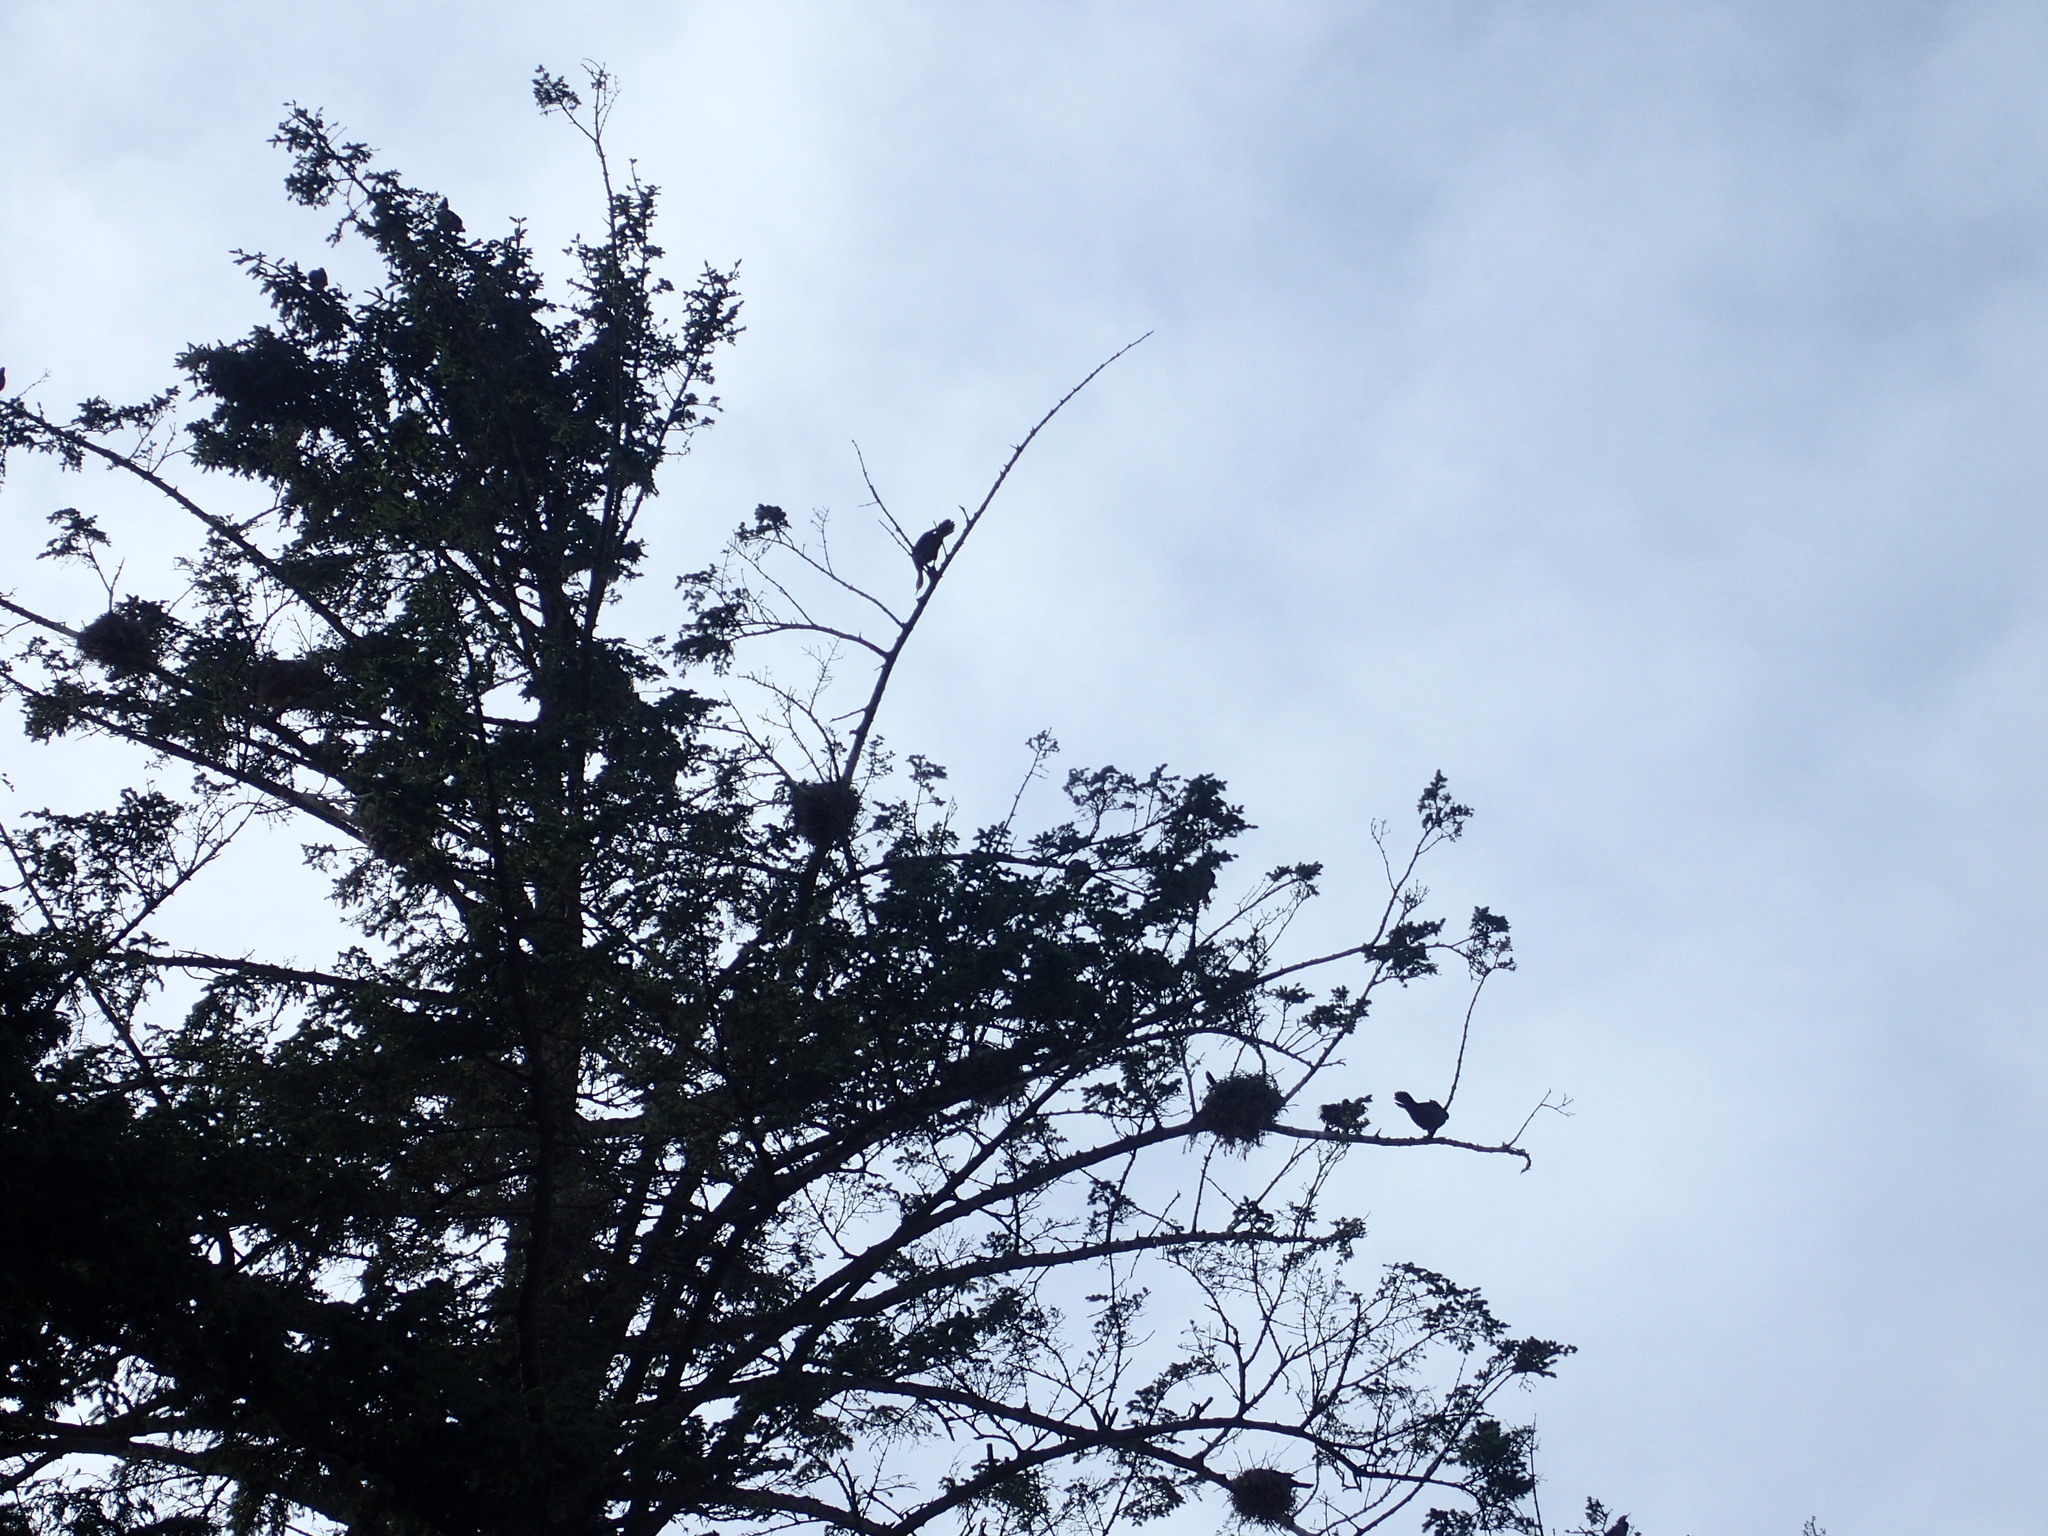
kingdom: Animalia
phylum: Chordata
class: Aves
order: Suliformes
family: Phalacrocoracidae
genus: Phalacrocorax
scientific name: Phalacrocorax auritus
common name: Double-crested cormorant
